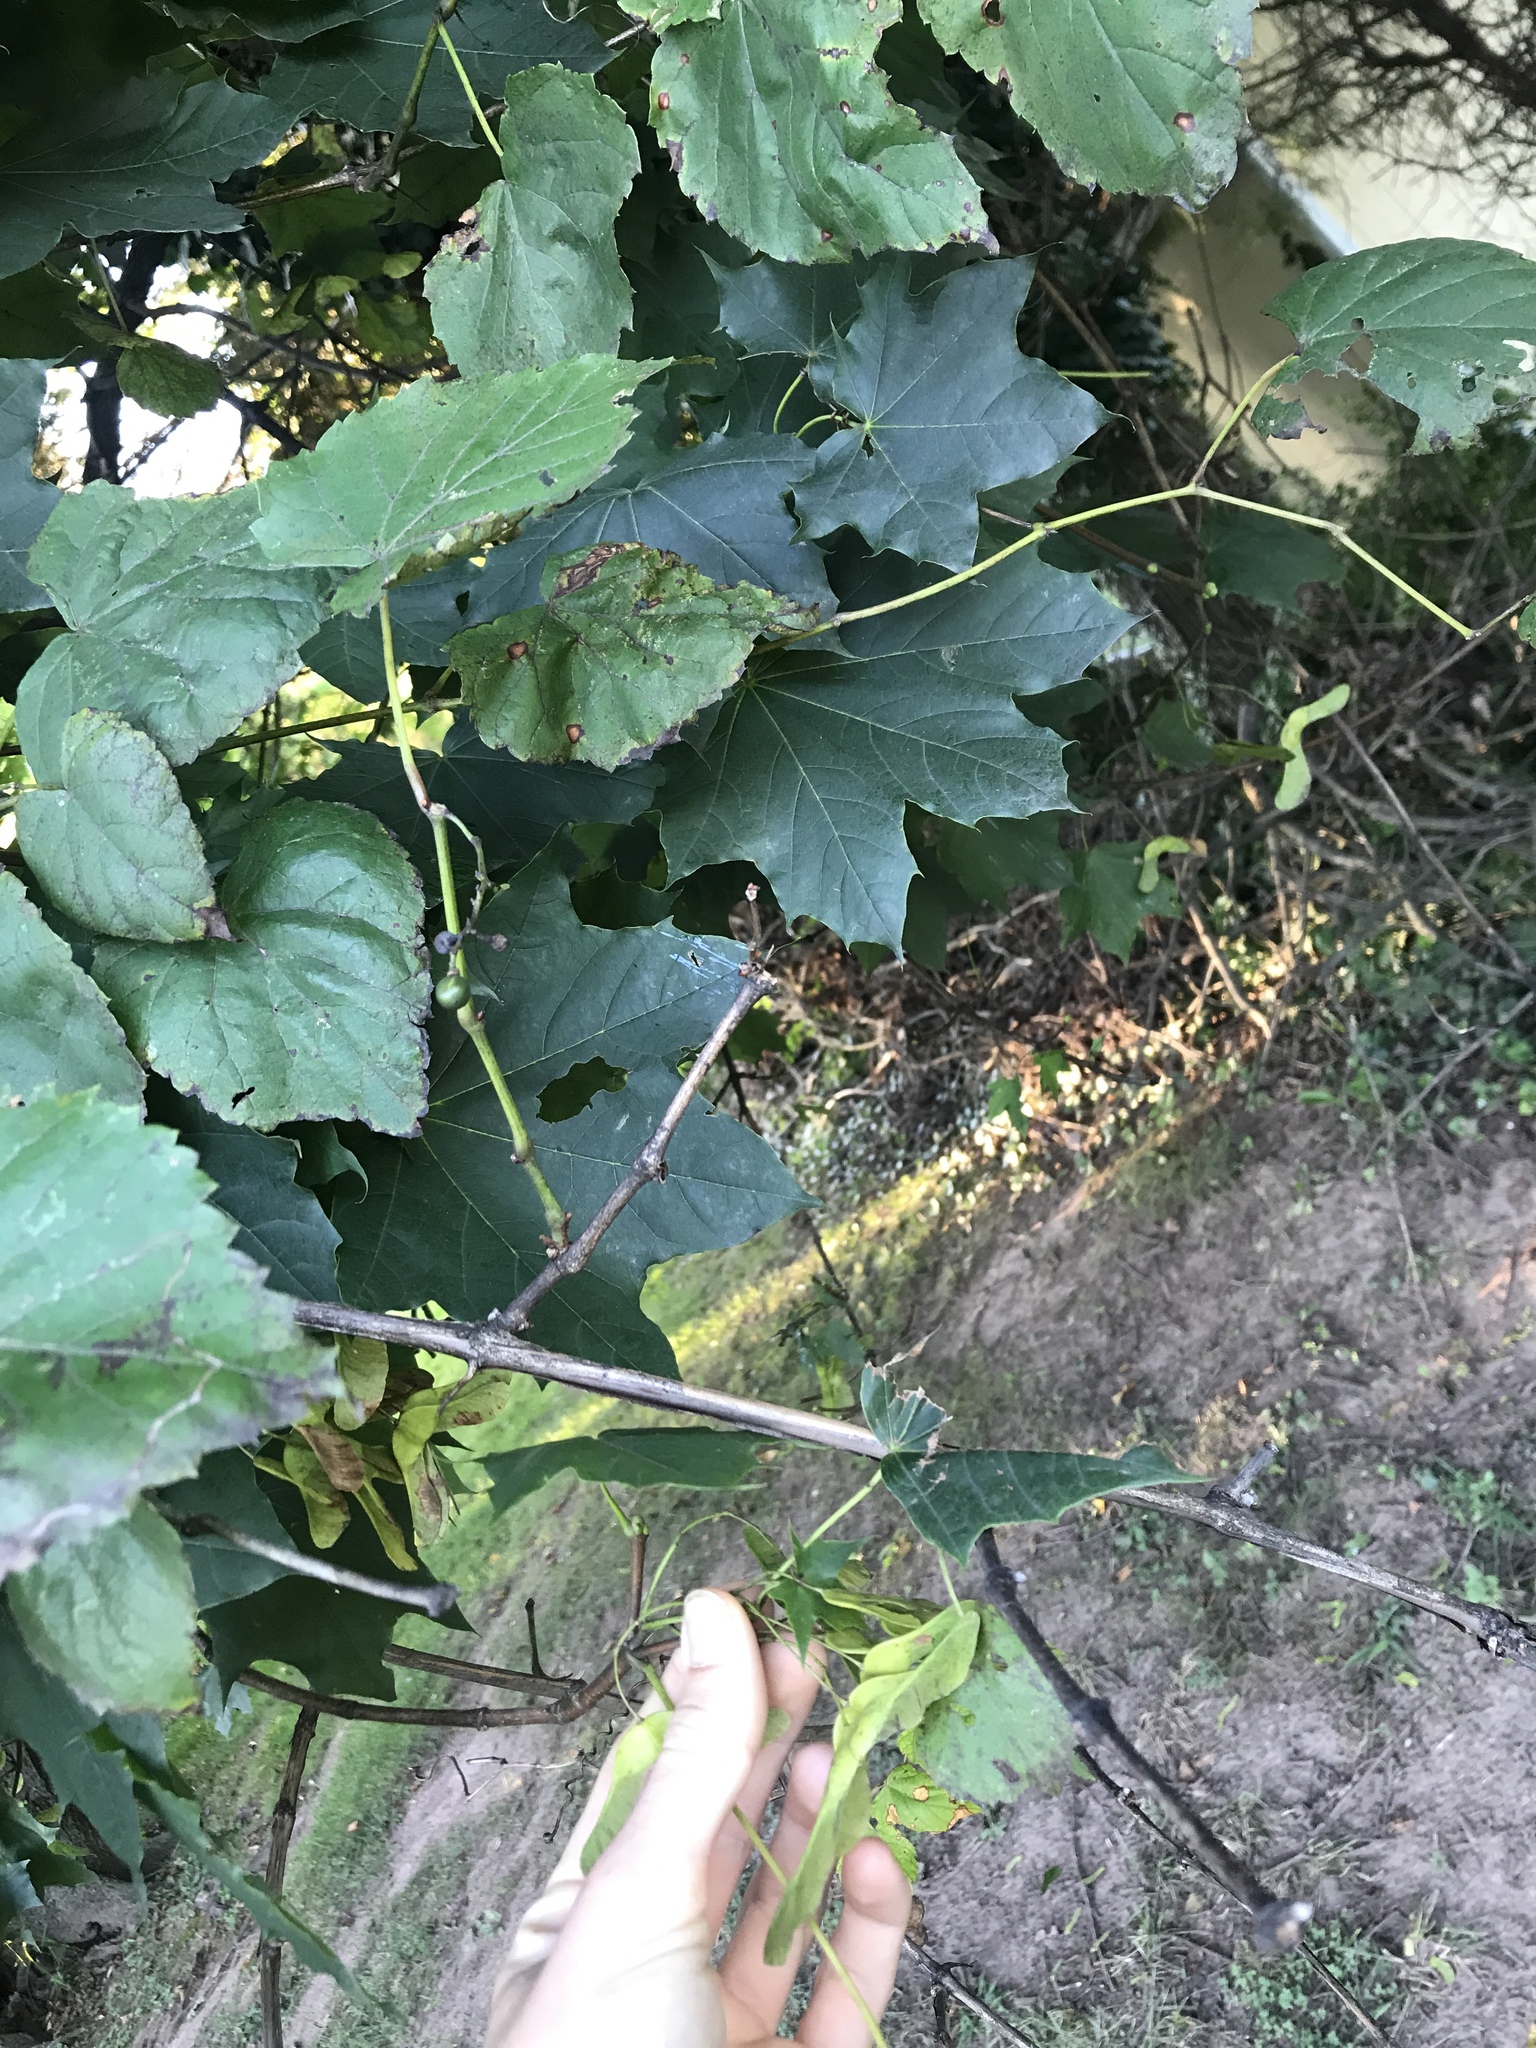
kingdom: Plantae
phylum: Tracheophyta
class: Magnoliopsida
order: Sapindales
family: Sapindaceae
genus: Acer
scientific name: Acer platanoides
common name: Norway maple
